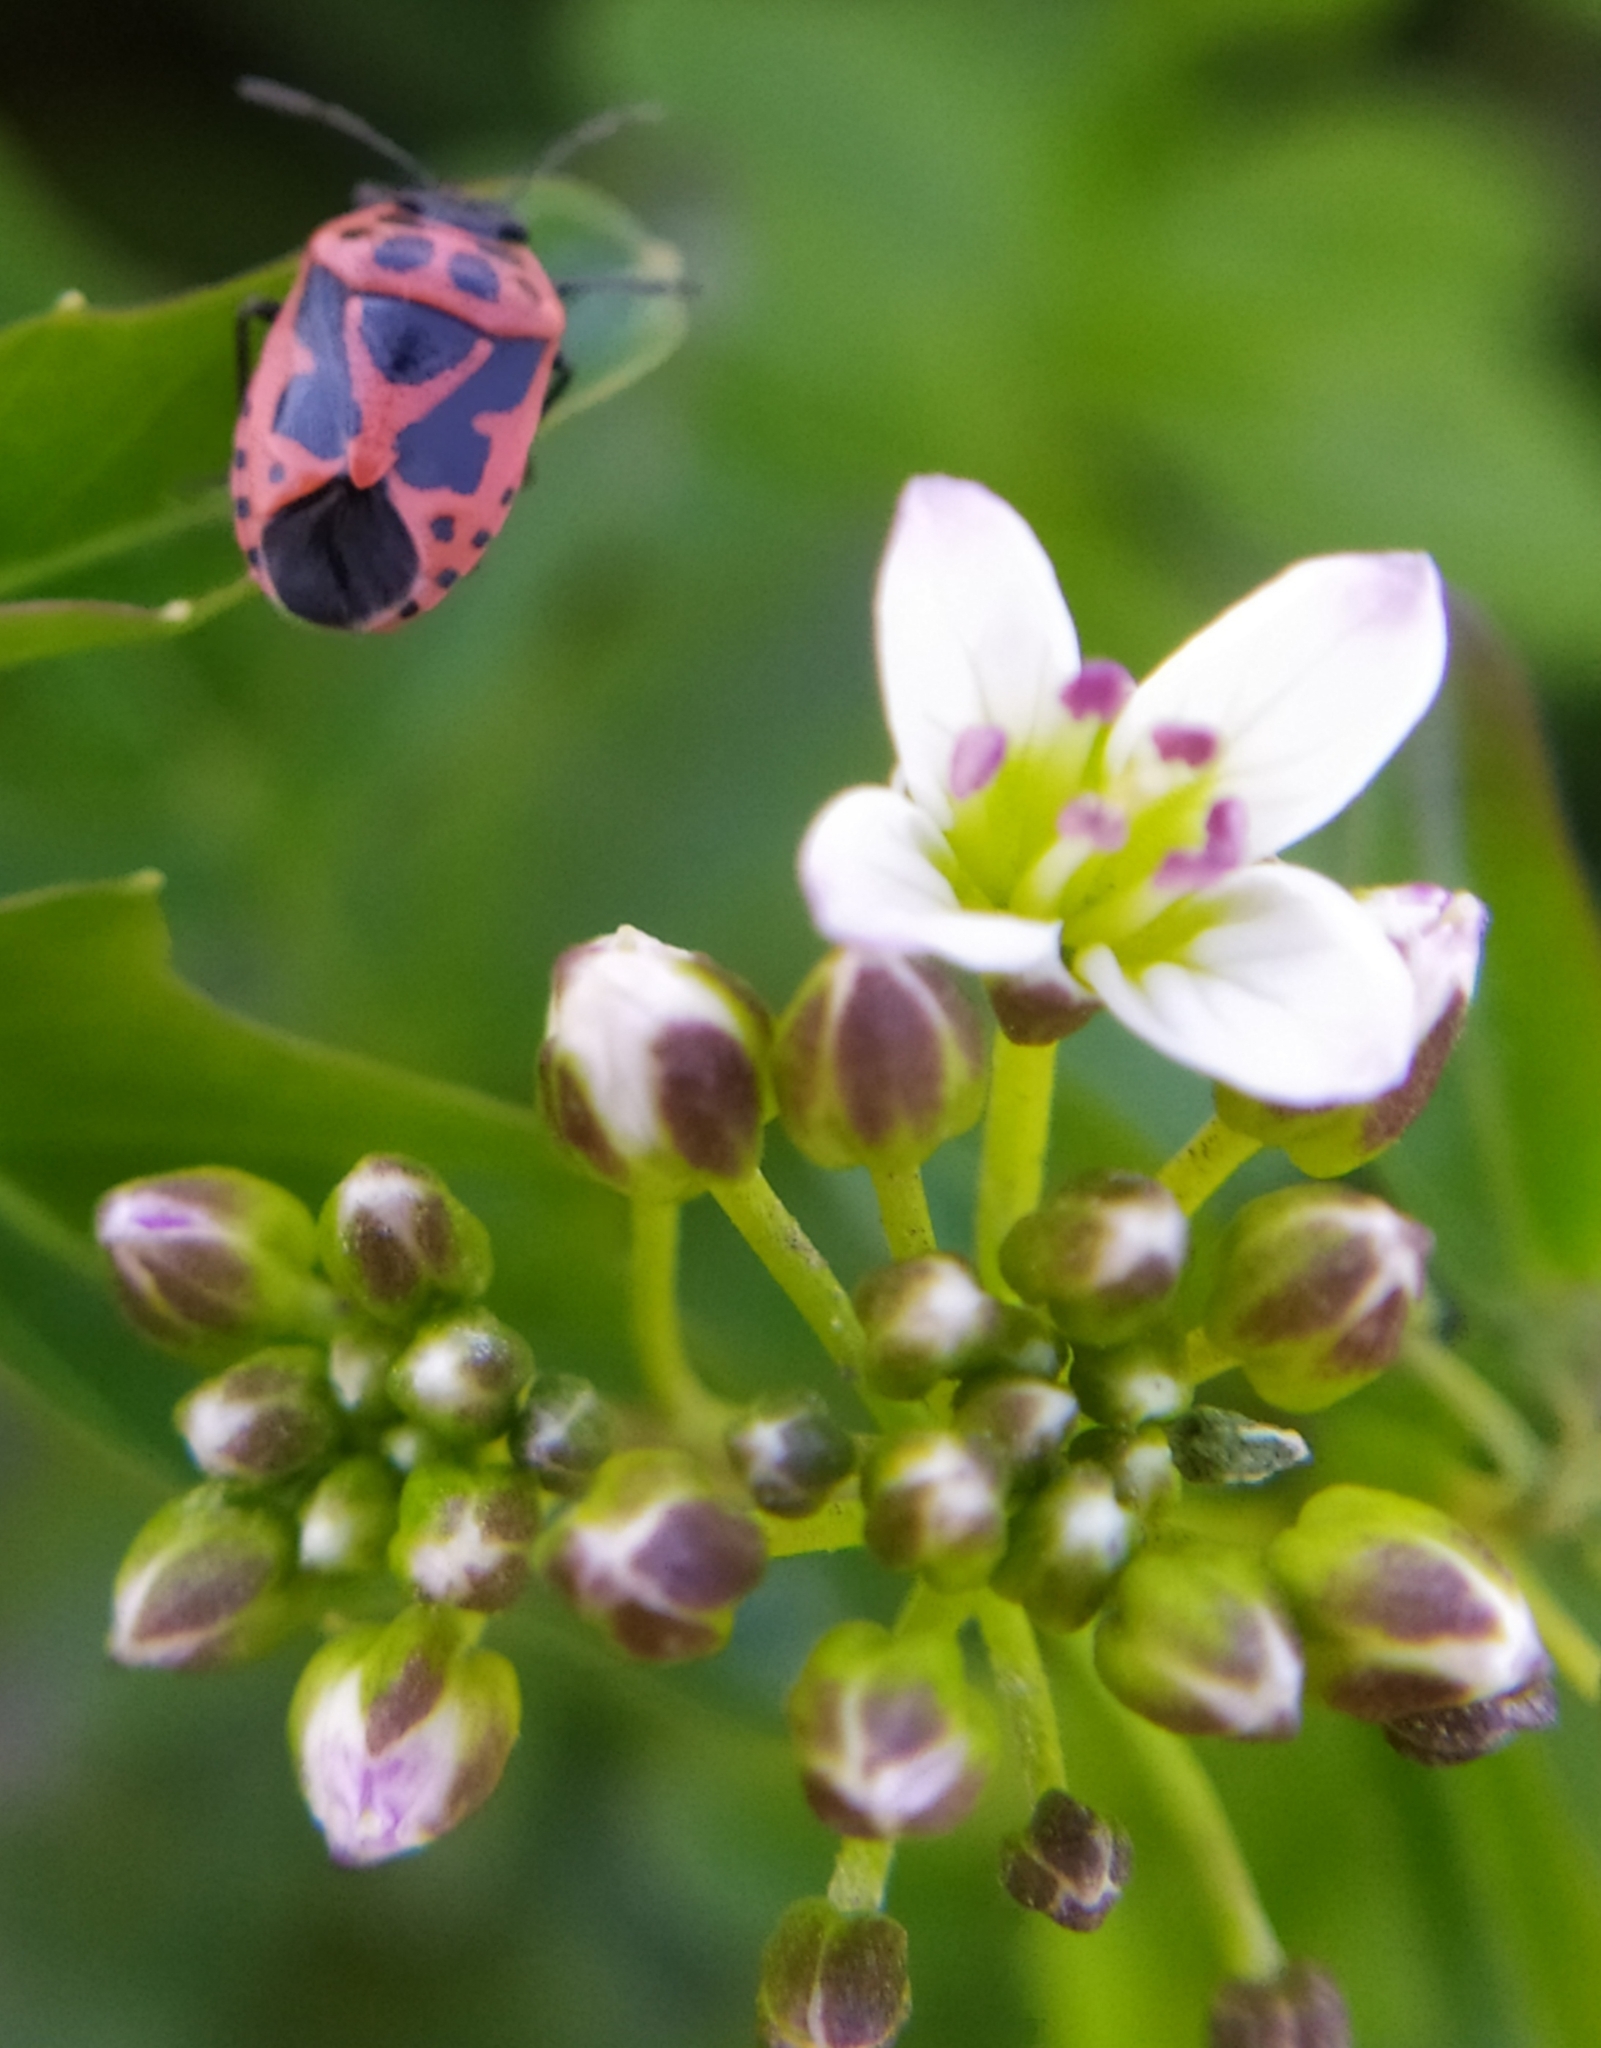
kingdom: Plantae
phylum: Tracheophyta
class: Magnoliopsida
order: Brassicales
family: Brassicaceae
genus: Cardamine
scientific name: Cardamine amara
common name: Large bitter-cress
